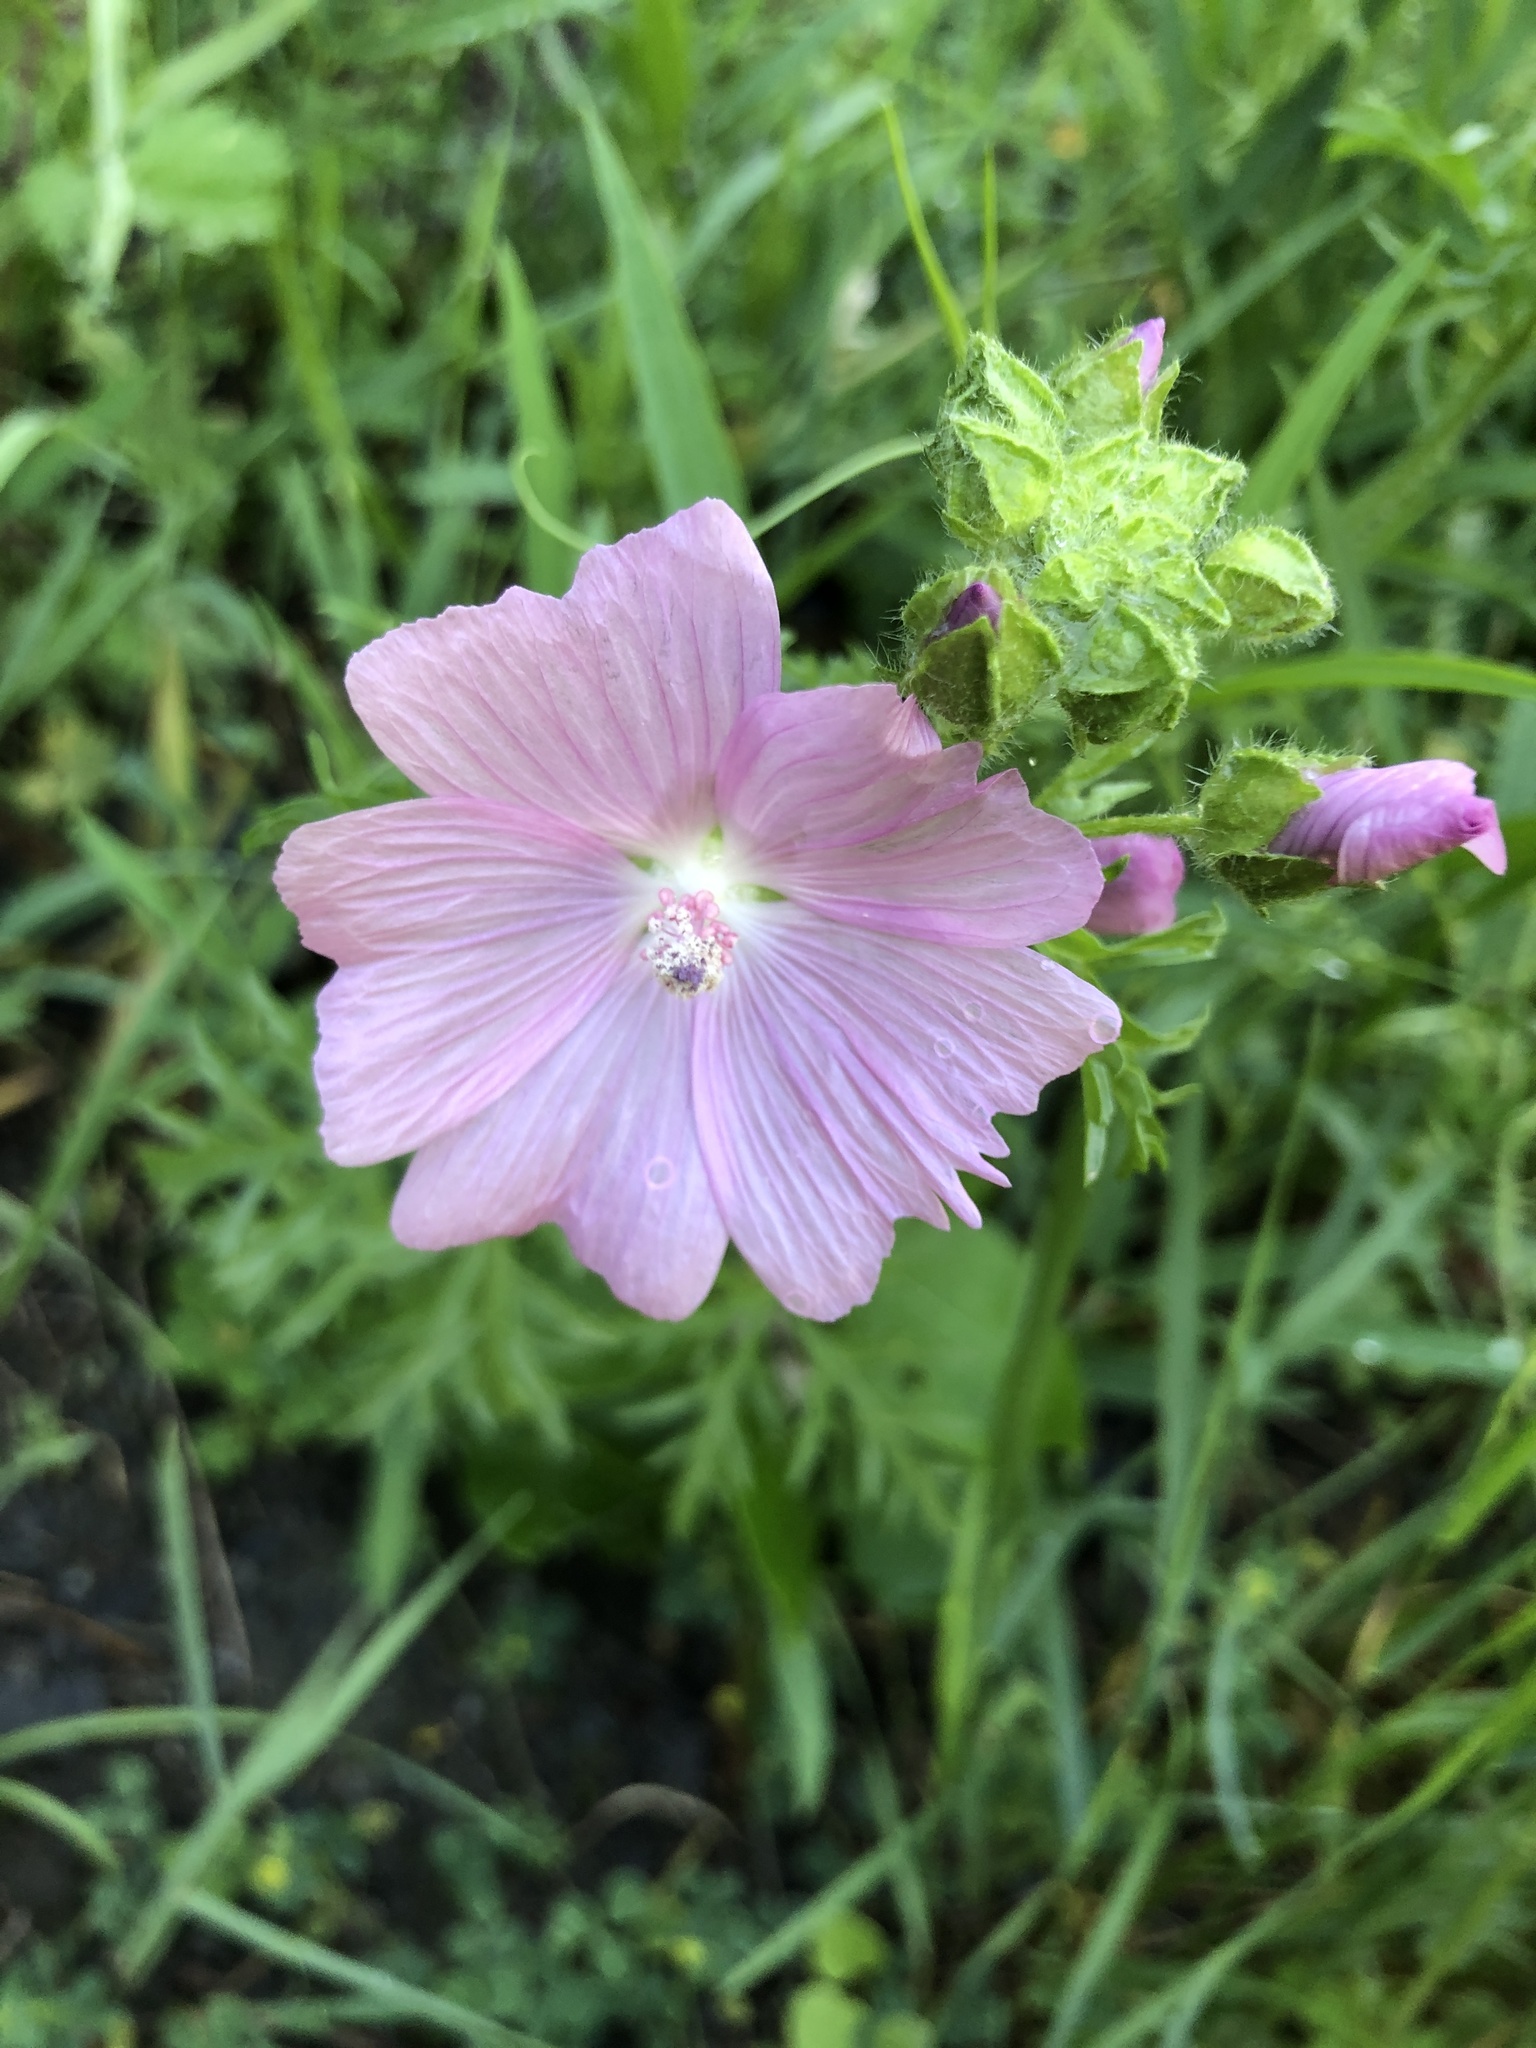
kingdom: Plantae
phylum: Tracheophyta
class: Magnoliopsida
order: Malvales
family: Malvaceae
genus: Malva
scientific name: Malva moschata
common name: Musk mallow
